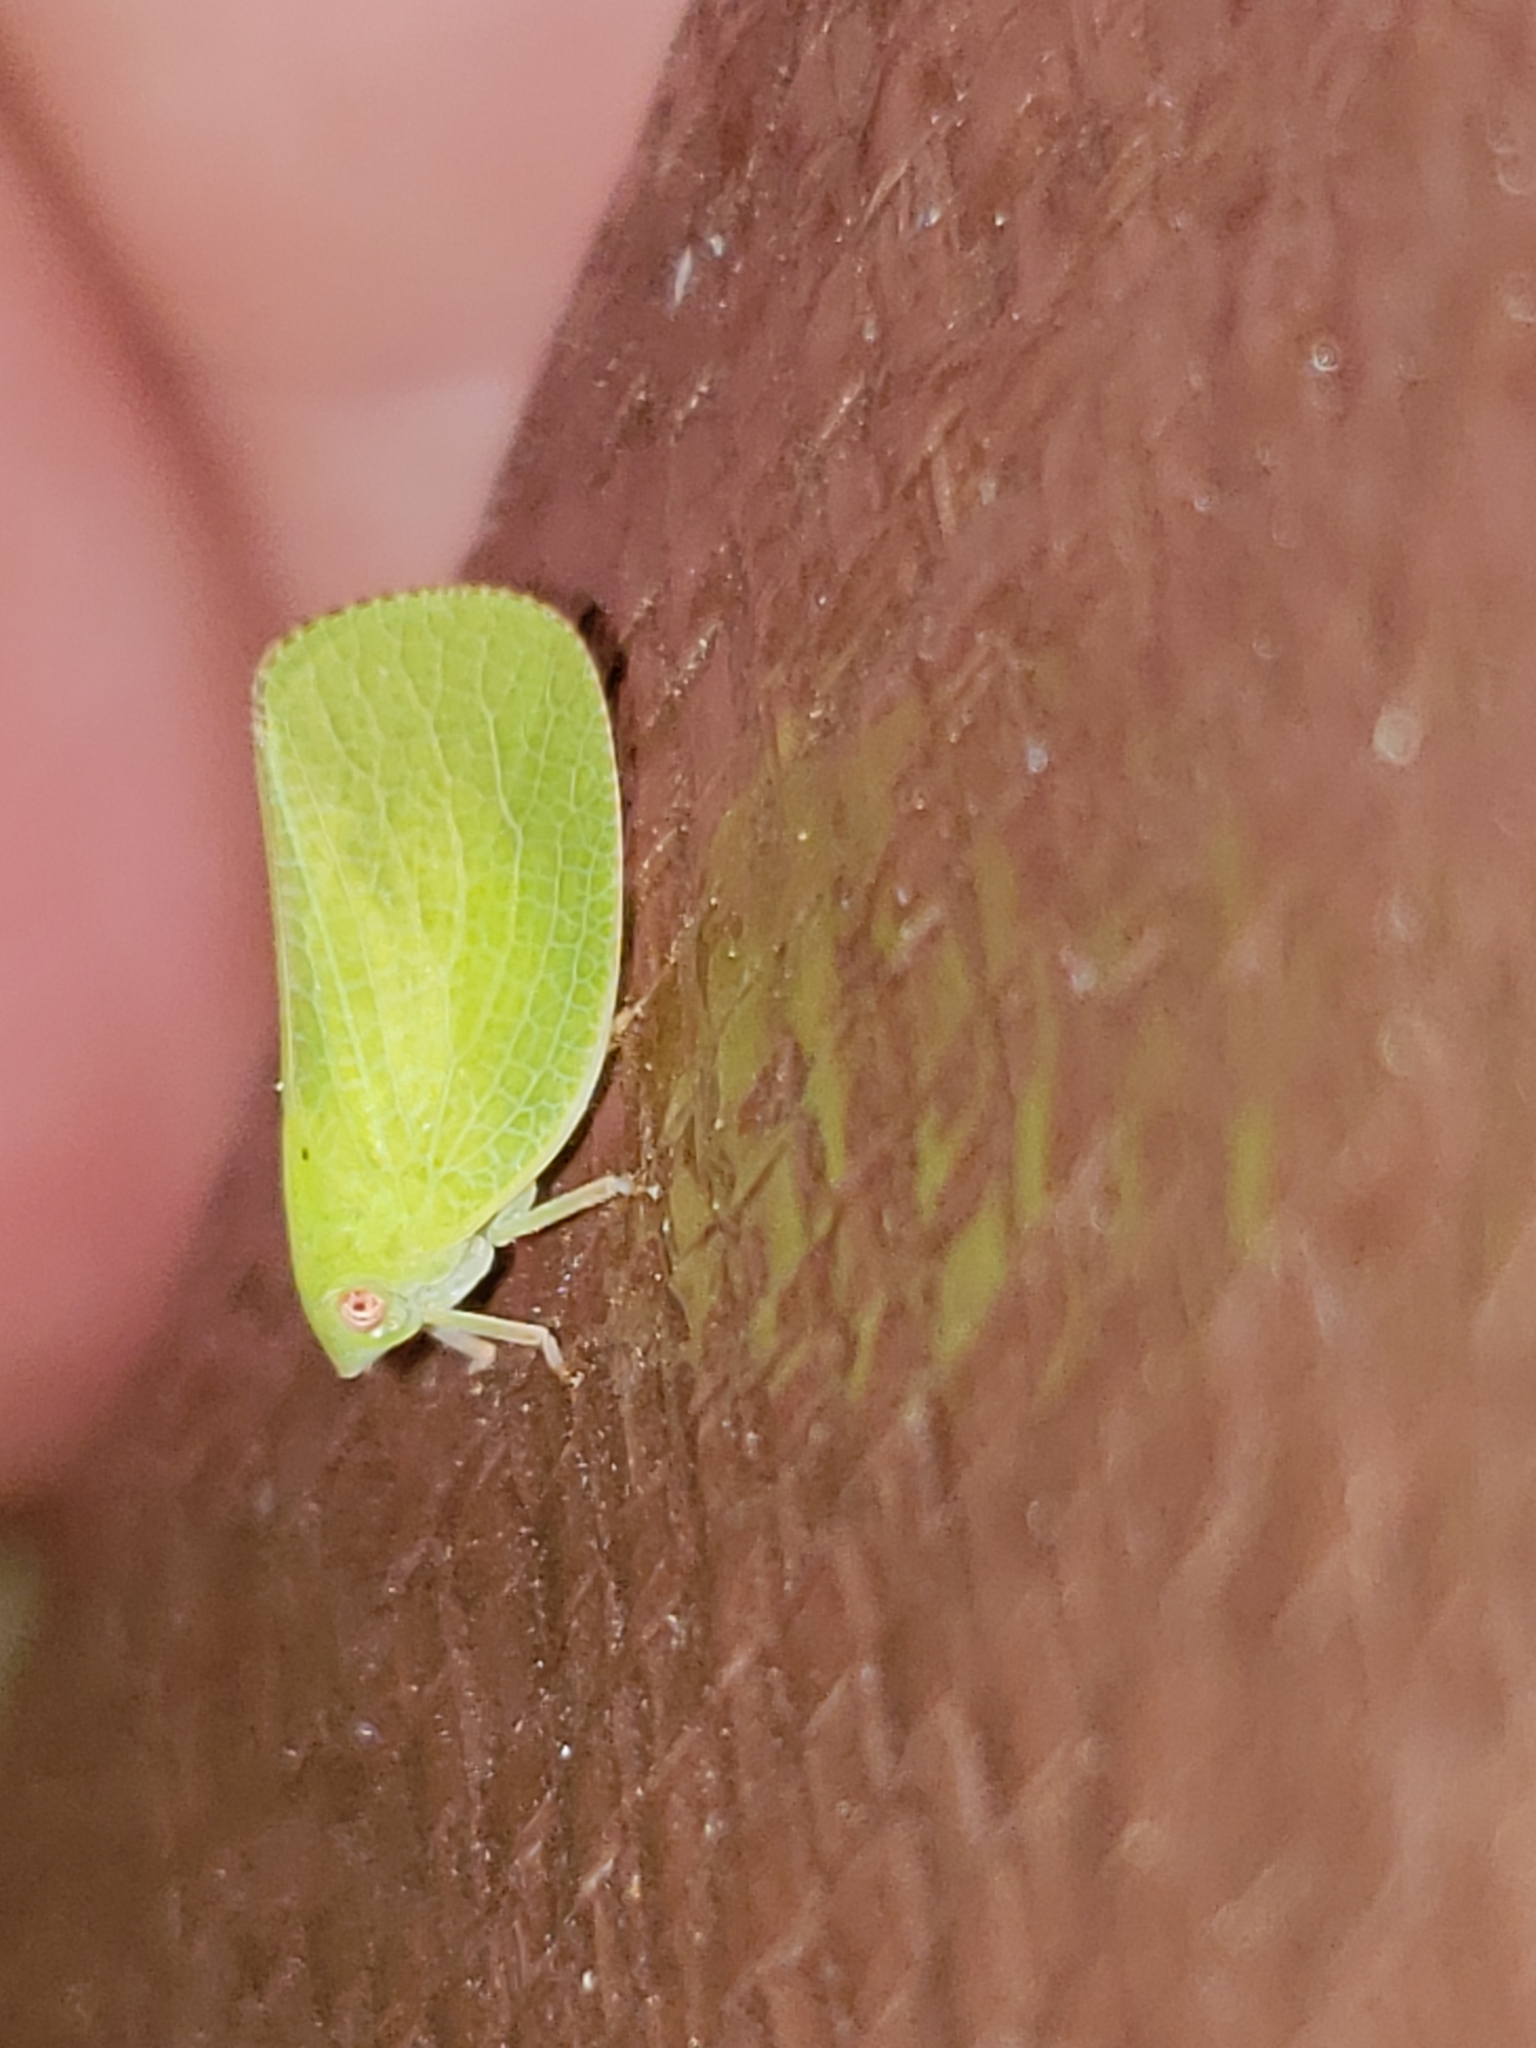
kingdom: Animalia
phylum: Arthropoda
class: Insecta
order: Hemiptera
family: Acanaloniidae
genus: Acanalonia
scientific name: Acanalonia conica
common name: Green cone-headed planthopper
